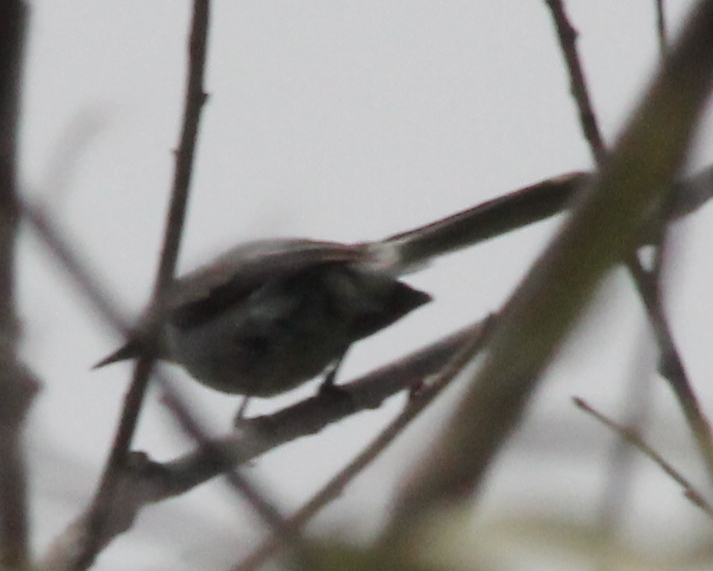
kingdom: Animalia
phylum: Chordata
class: Aves
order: Passeriformes
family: Polioptilidae
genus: Polioptila
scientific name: Polioptila caerulea
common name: Blue-gray gnatcatcher
